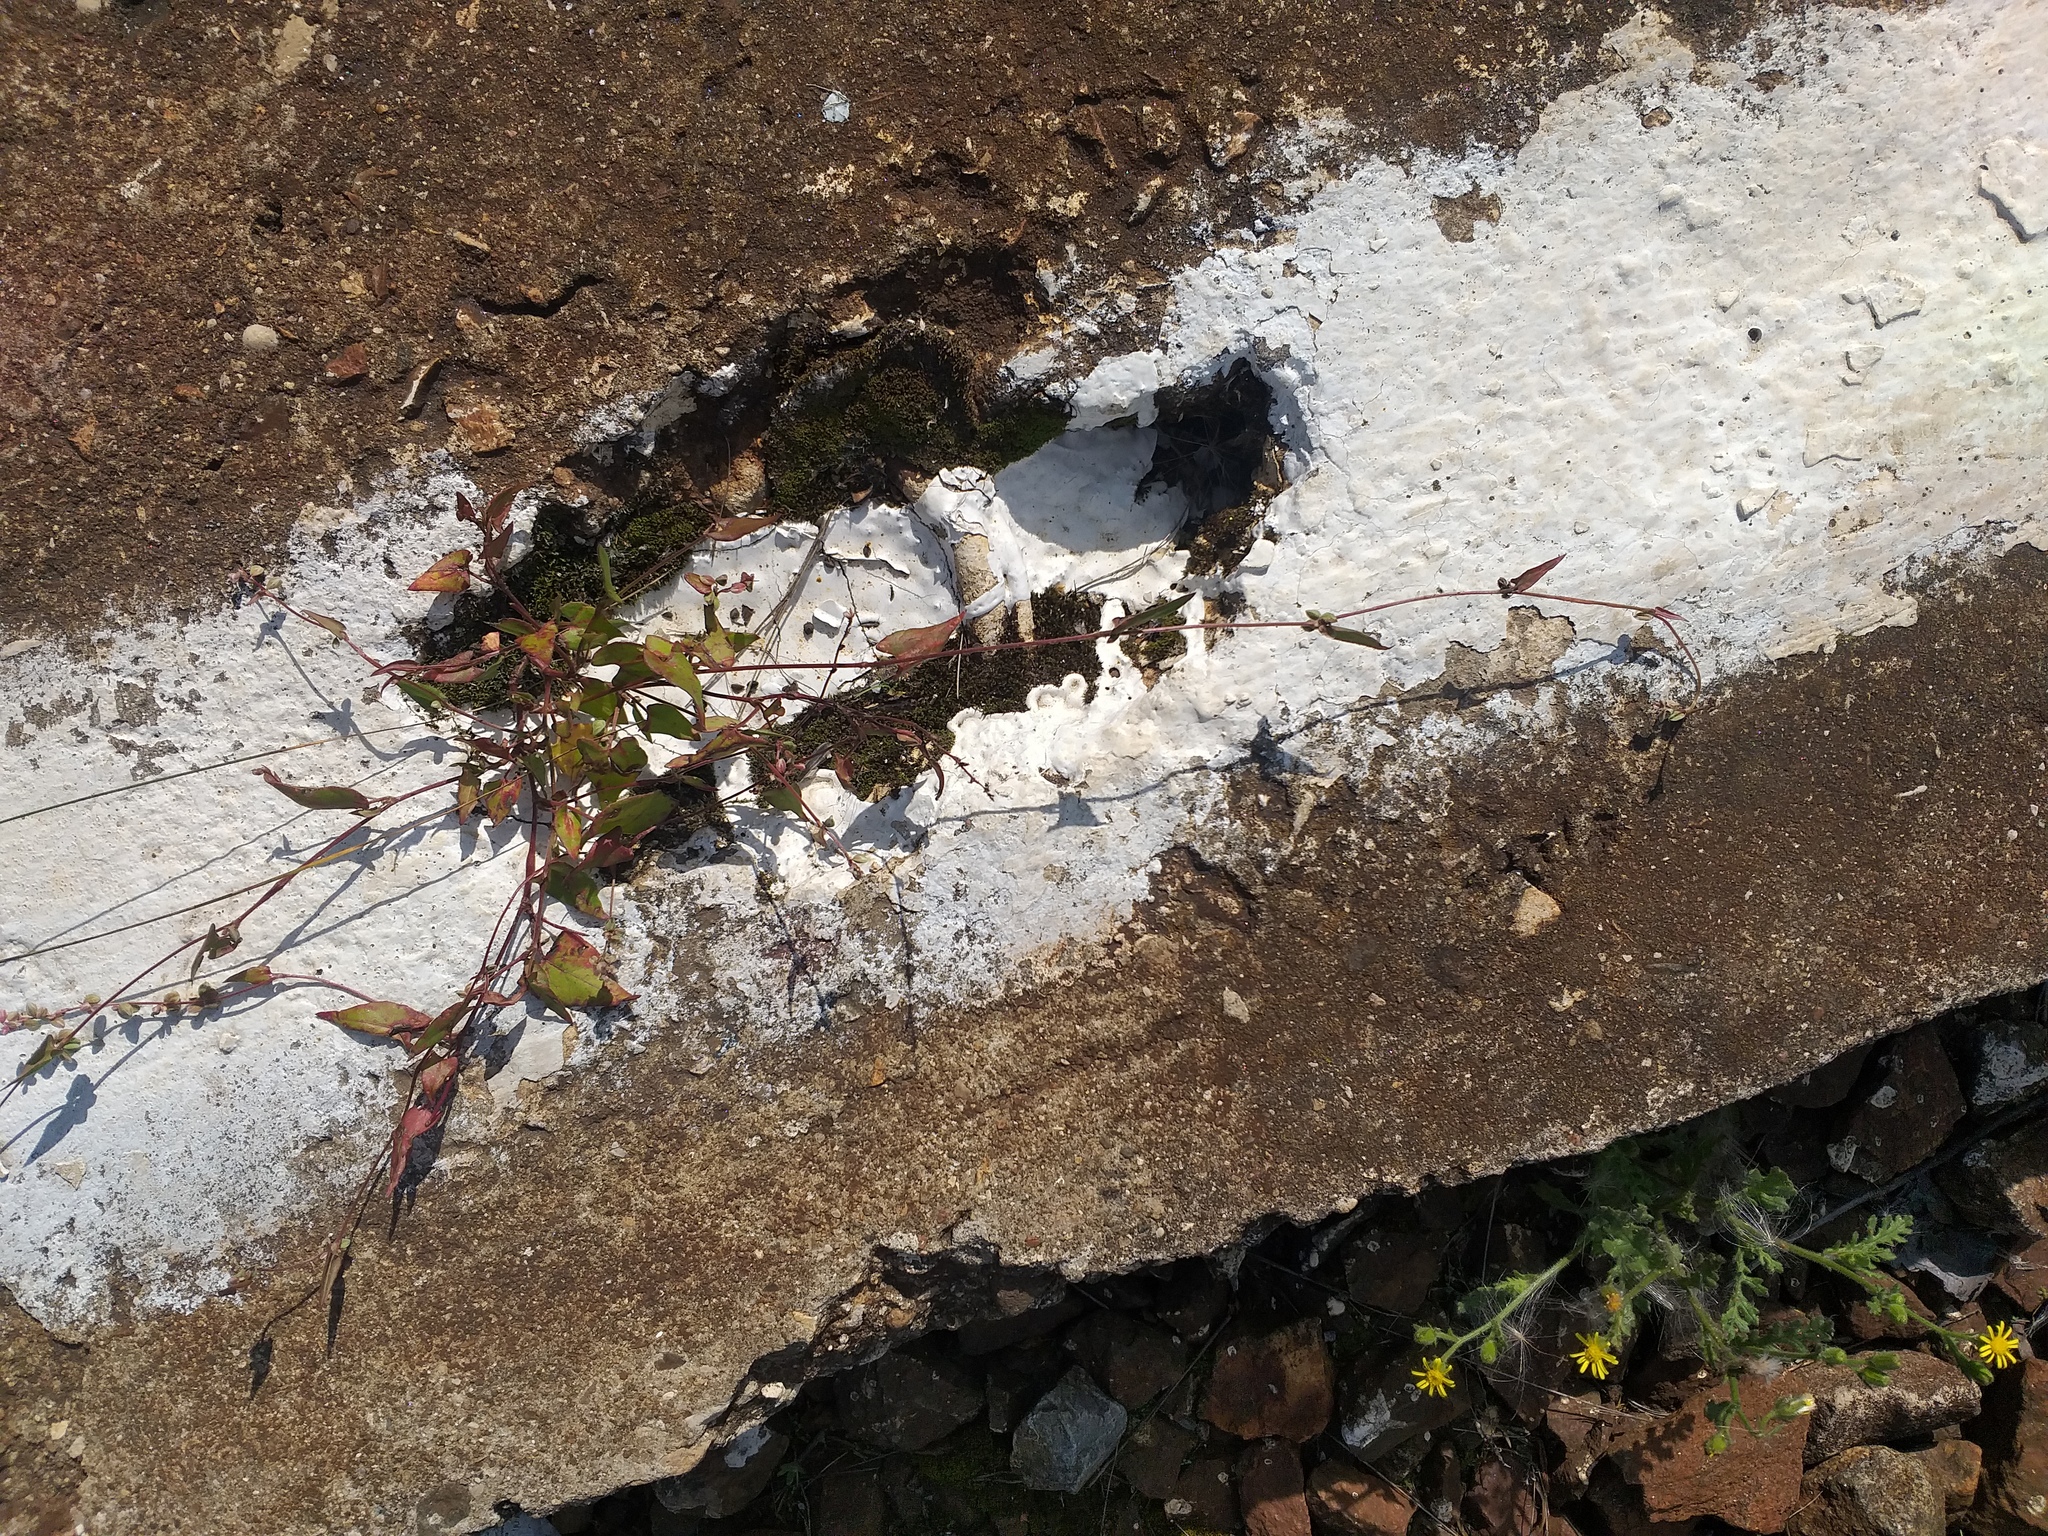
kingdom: Plantae
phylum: Tracheophyta
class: Magnoliopsida
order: Caryophyllales
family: Polygonaceae
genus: Fallopia
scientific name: Fallopia convolvulus
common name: Black bindweed
